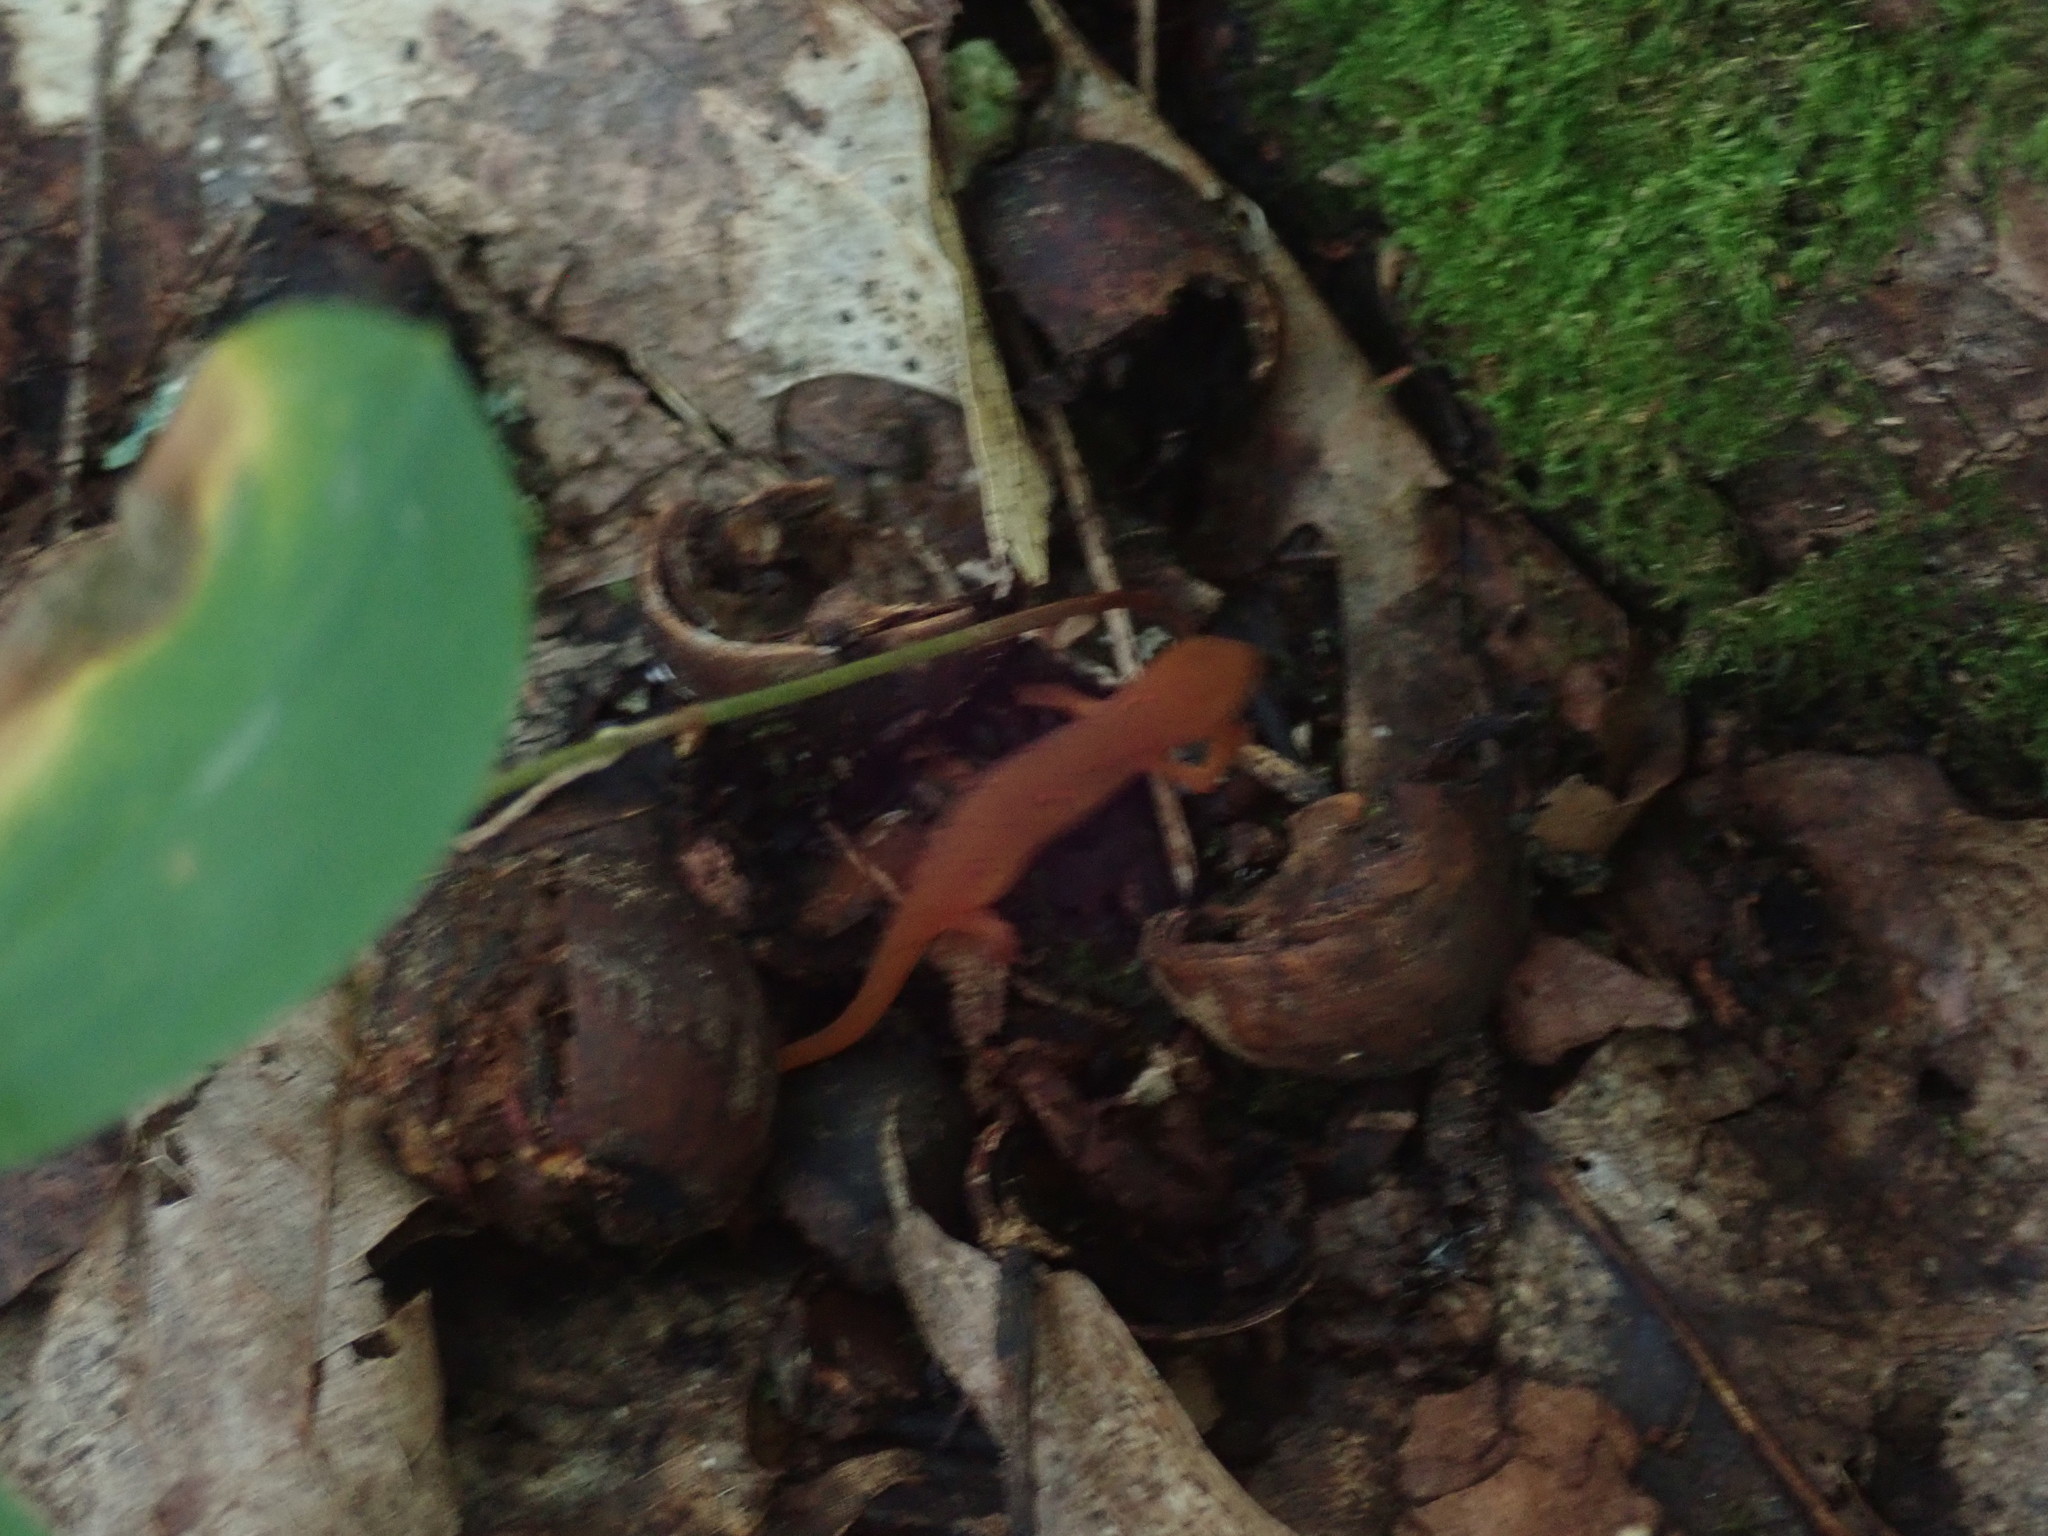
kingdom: Animalia
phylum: Chordata
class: Amphibia
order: Caudata
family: Salamandridae
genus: Notophthalmus
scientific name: Notophthalmus viridescens
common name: Eastern newt
